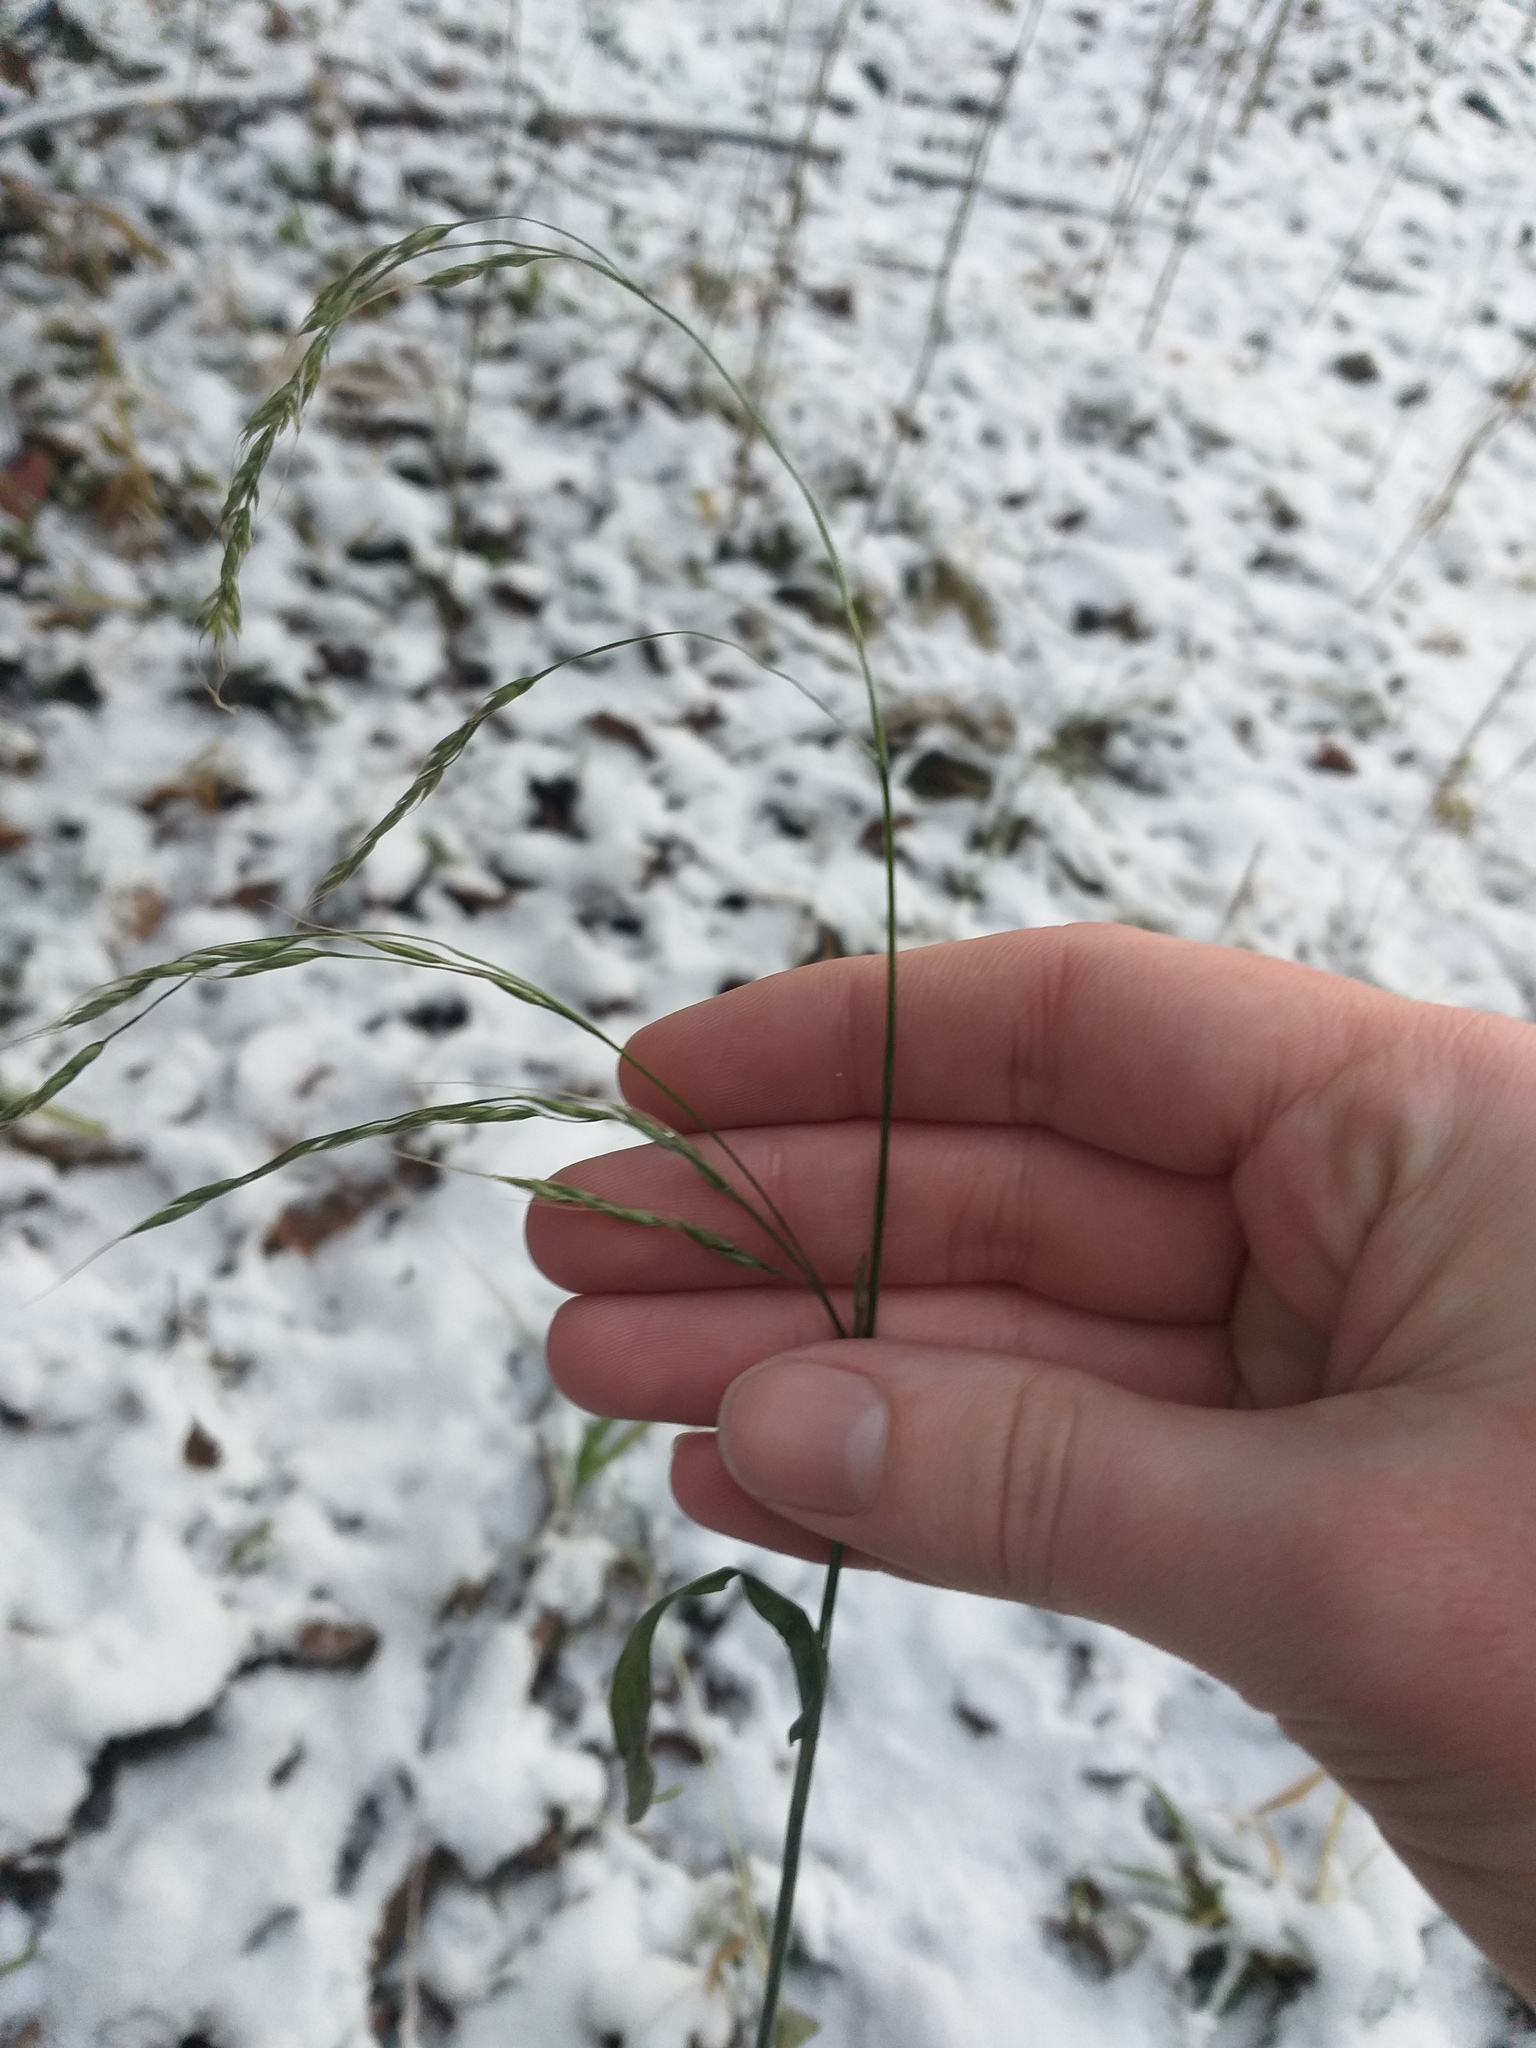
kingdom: Plantae
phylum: Tracheophyta
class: Liliopsida
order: Poales
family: Poaceae
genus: Lolium
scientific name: Lolium giganteum
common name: Giant fescue
